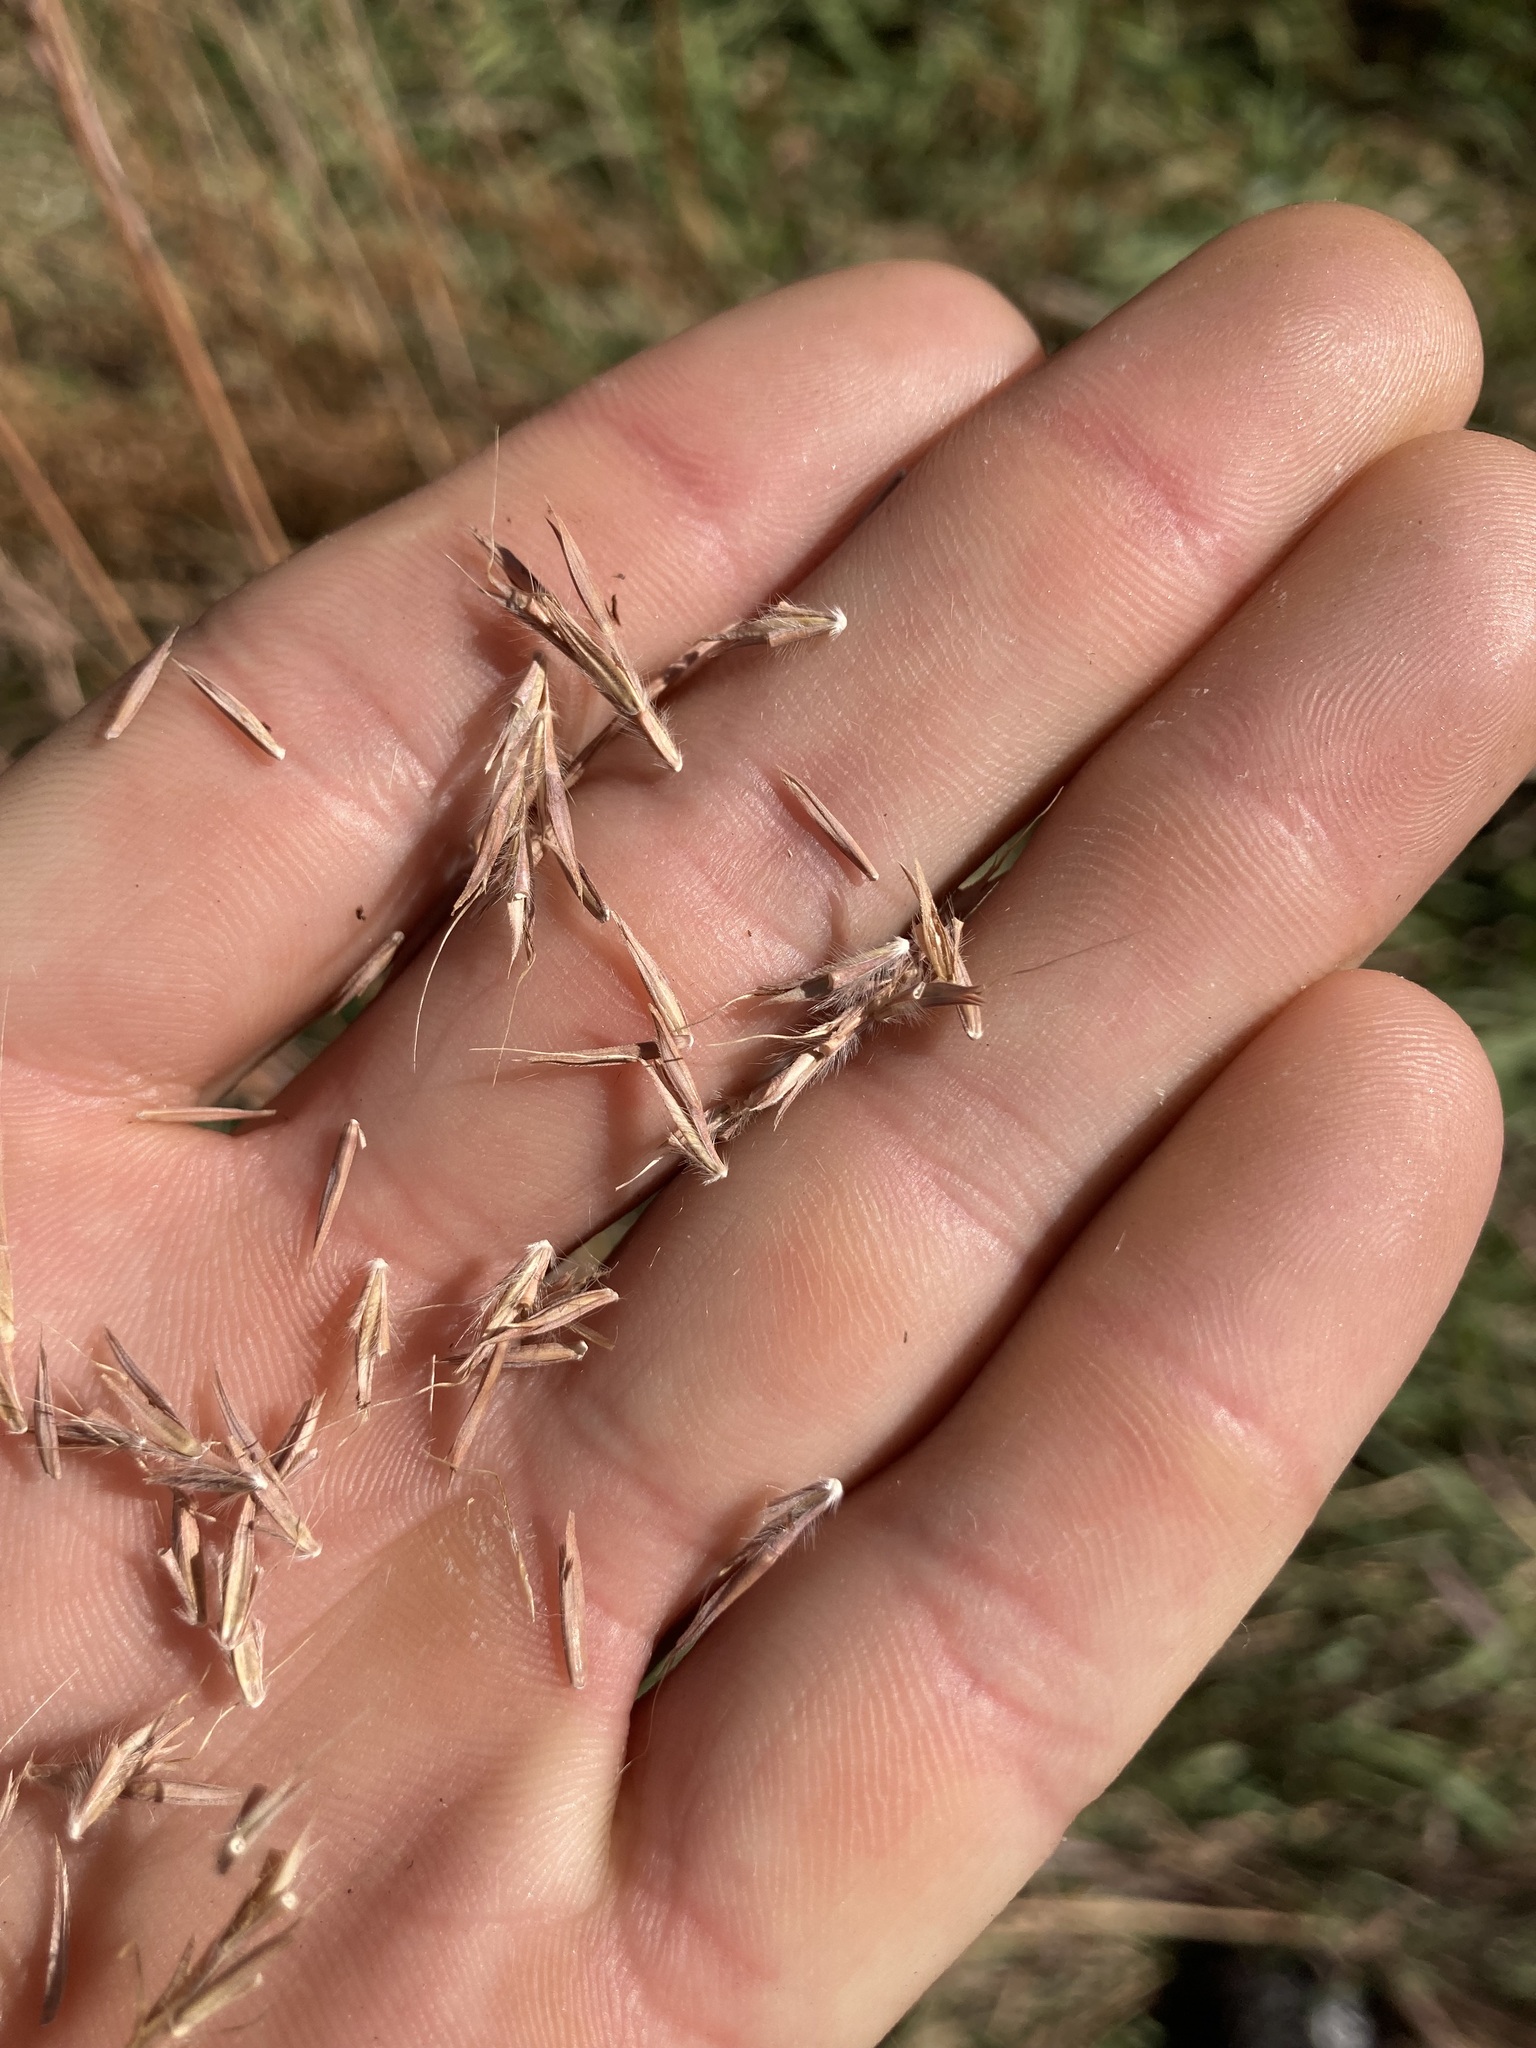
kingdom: Plantae
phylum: Tracheophyta
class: Liliopsida
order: Poales
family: Poaceae
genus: Andropogon
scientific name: Andropogon gerardi
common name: Big bluestem
